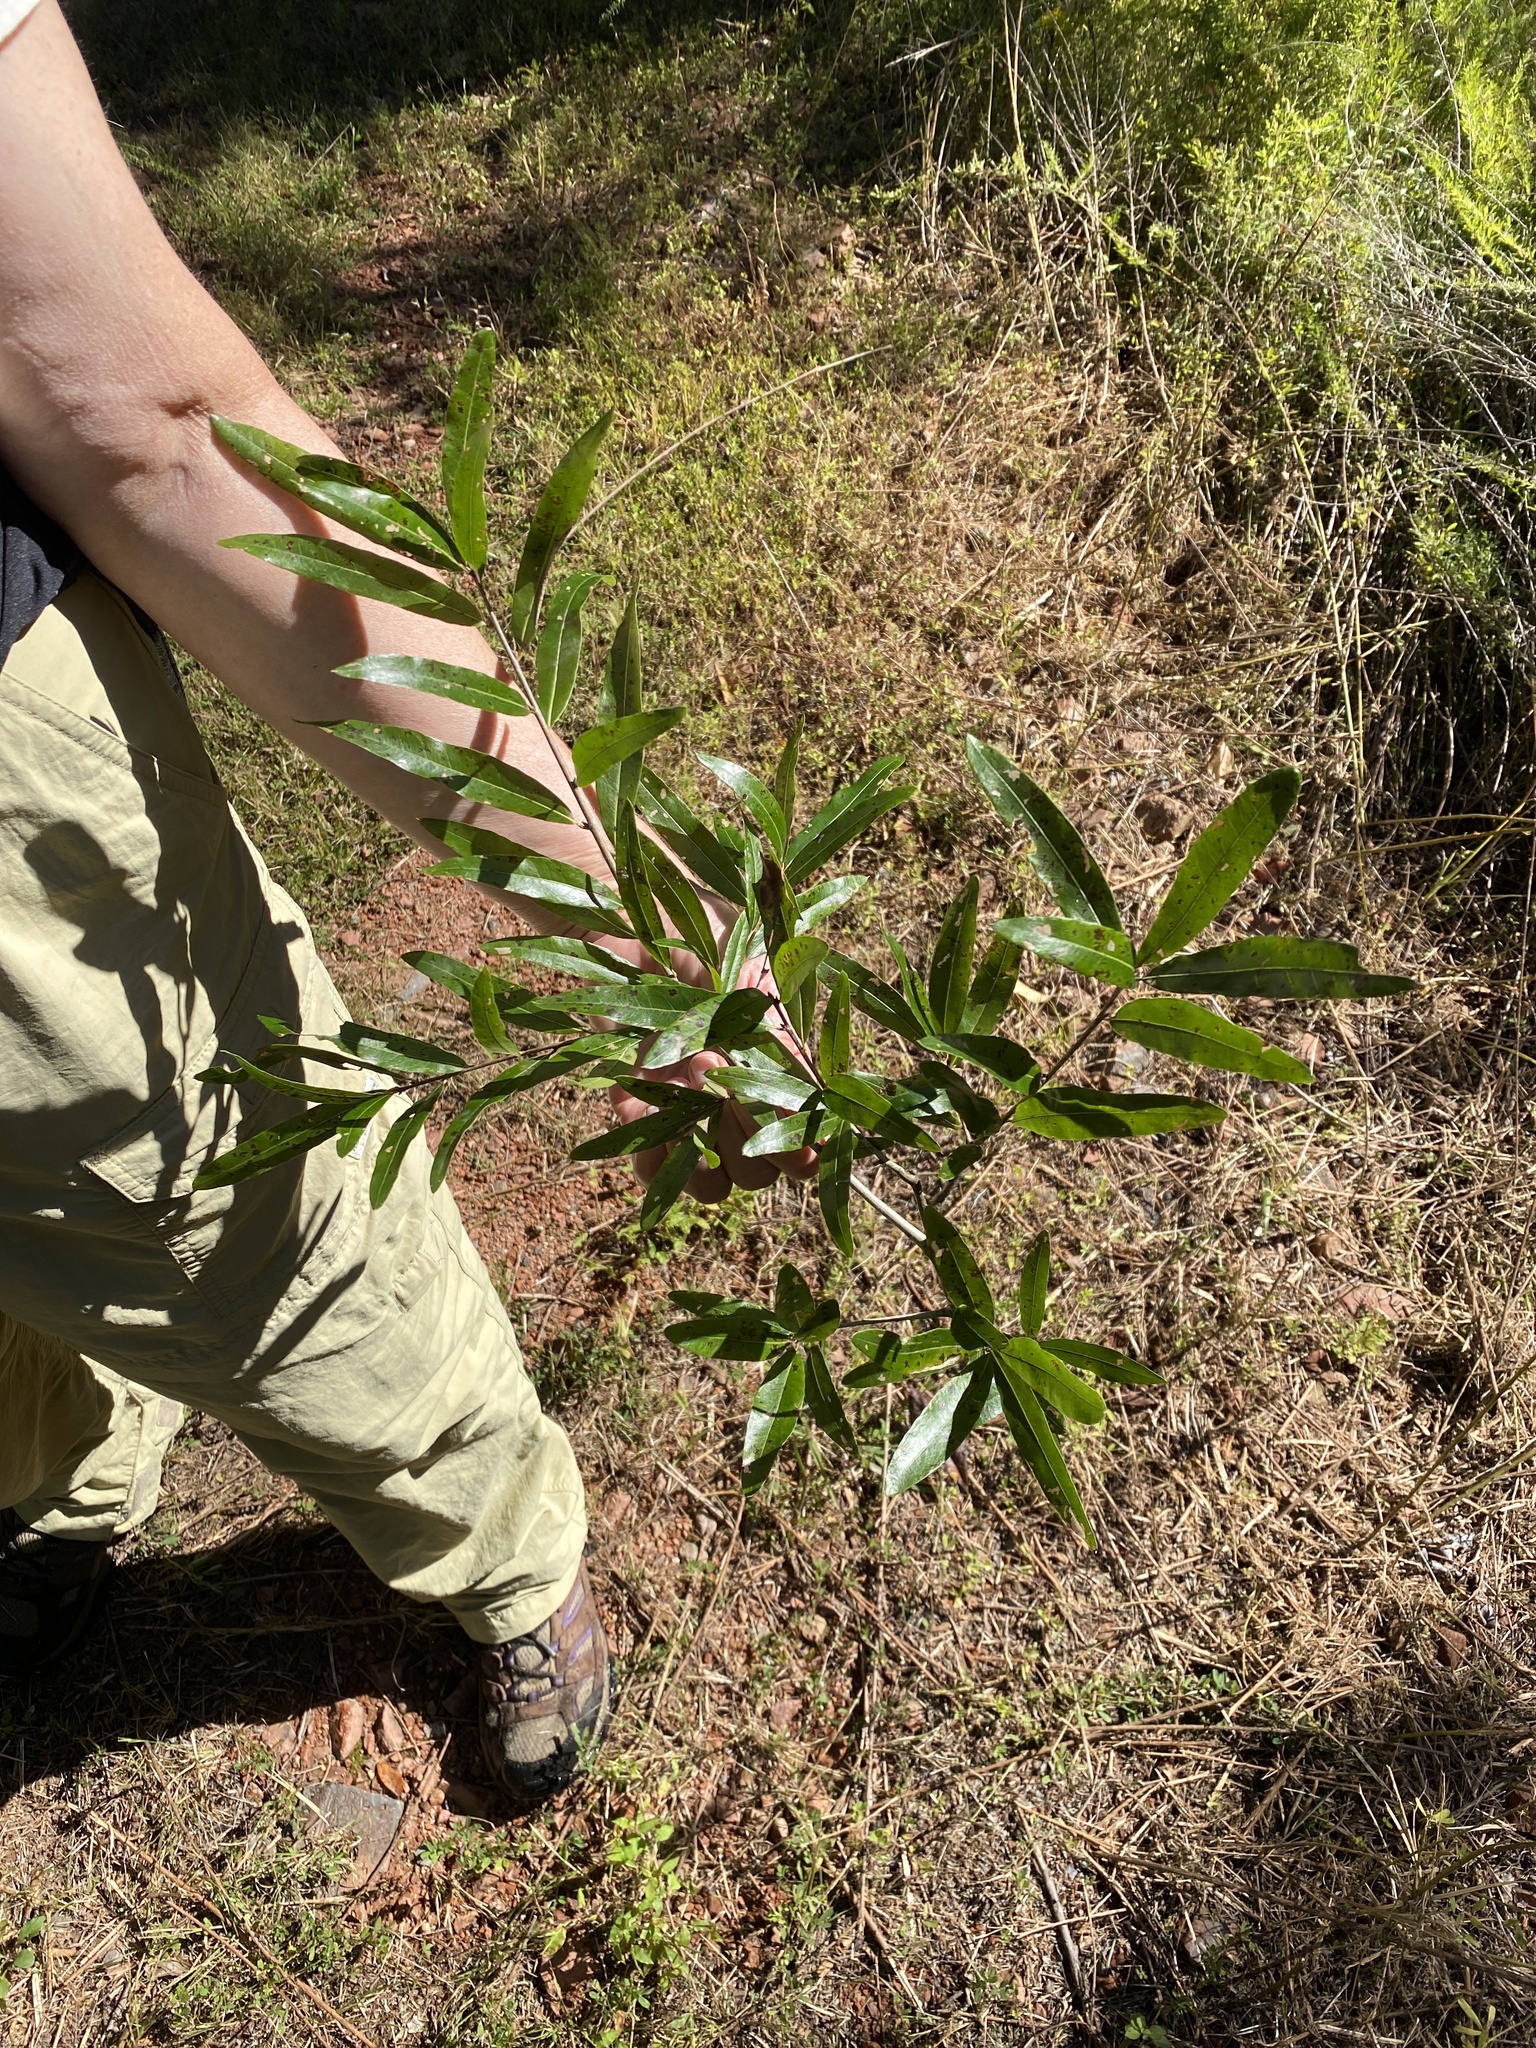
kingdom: Plantae
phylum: Tracheophyta
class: Magnoliopsida
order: Fagales
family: Fagaceae
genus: Quercus
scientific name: Quercus phellos
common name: Willow oak
